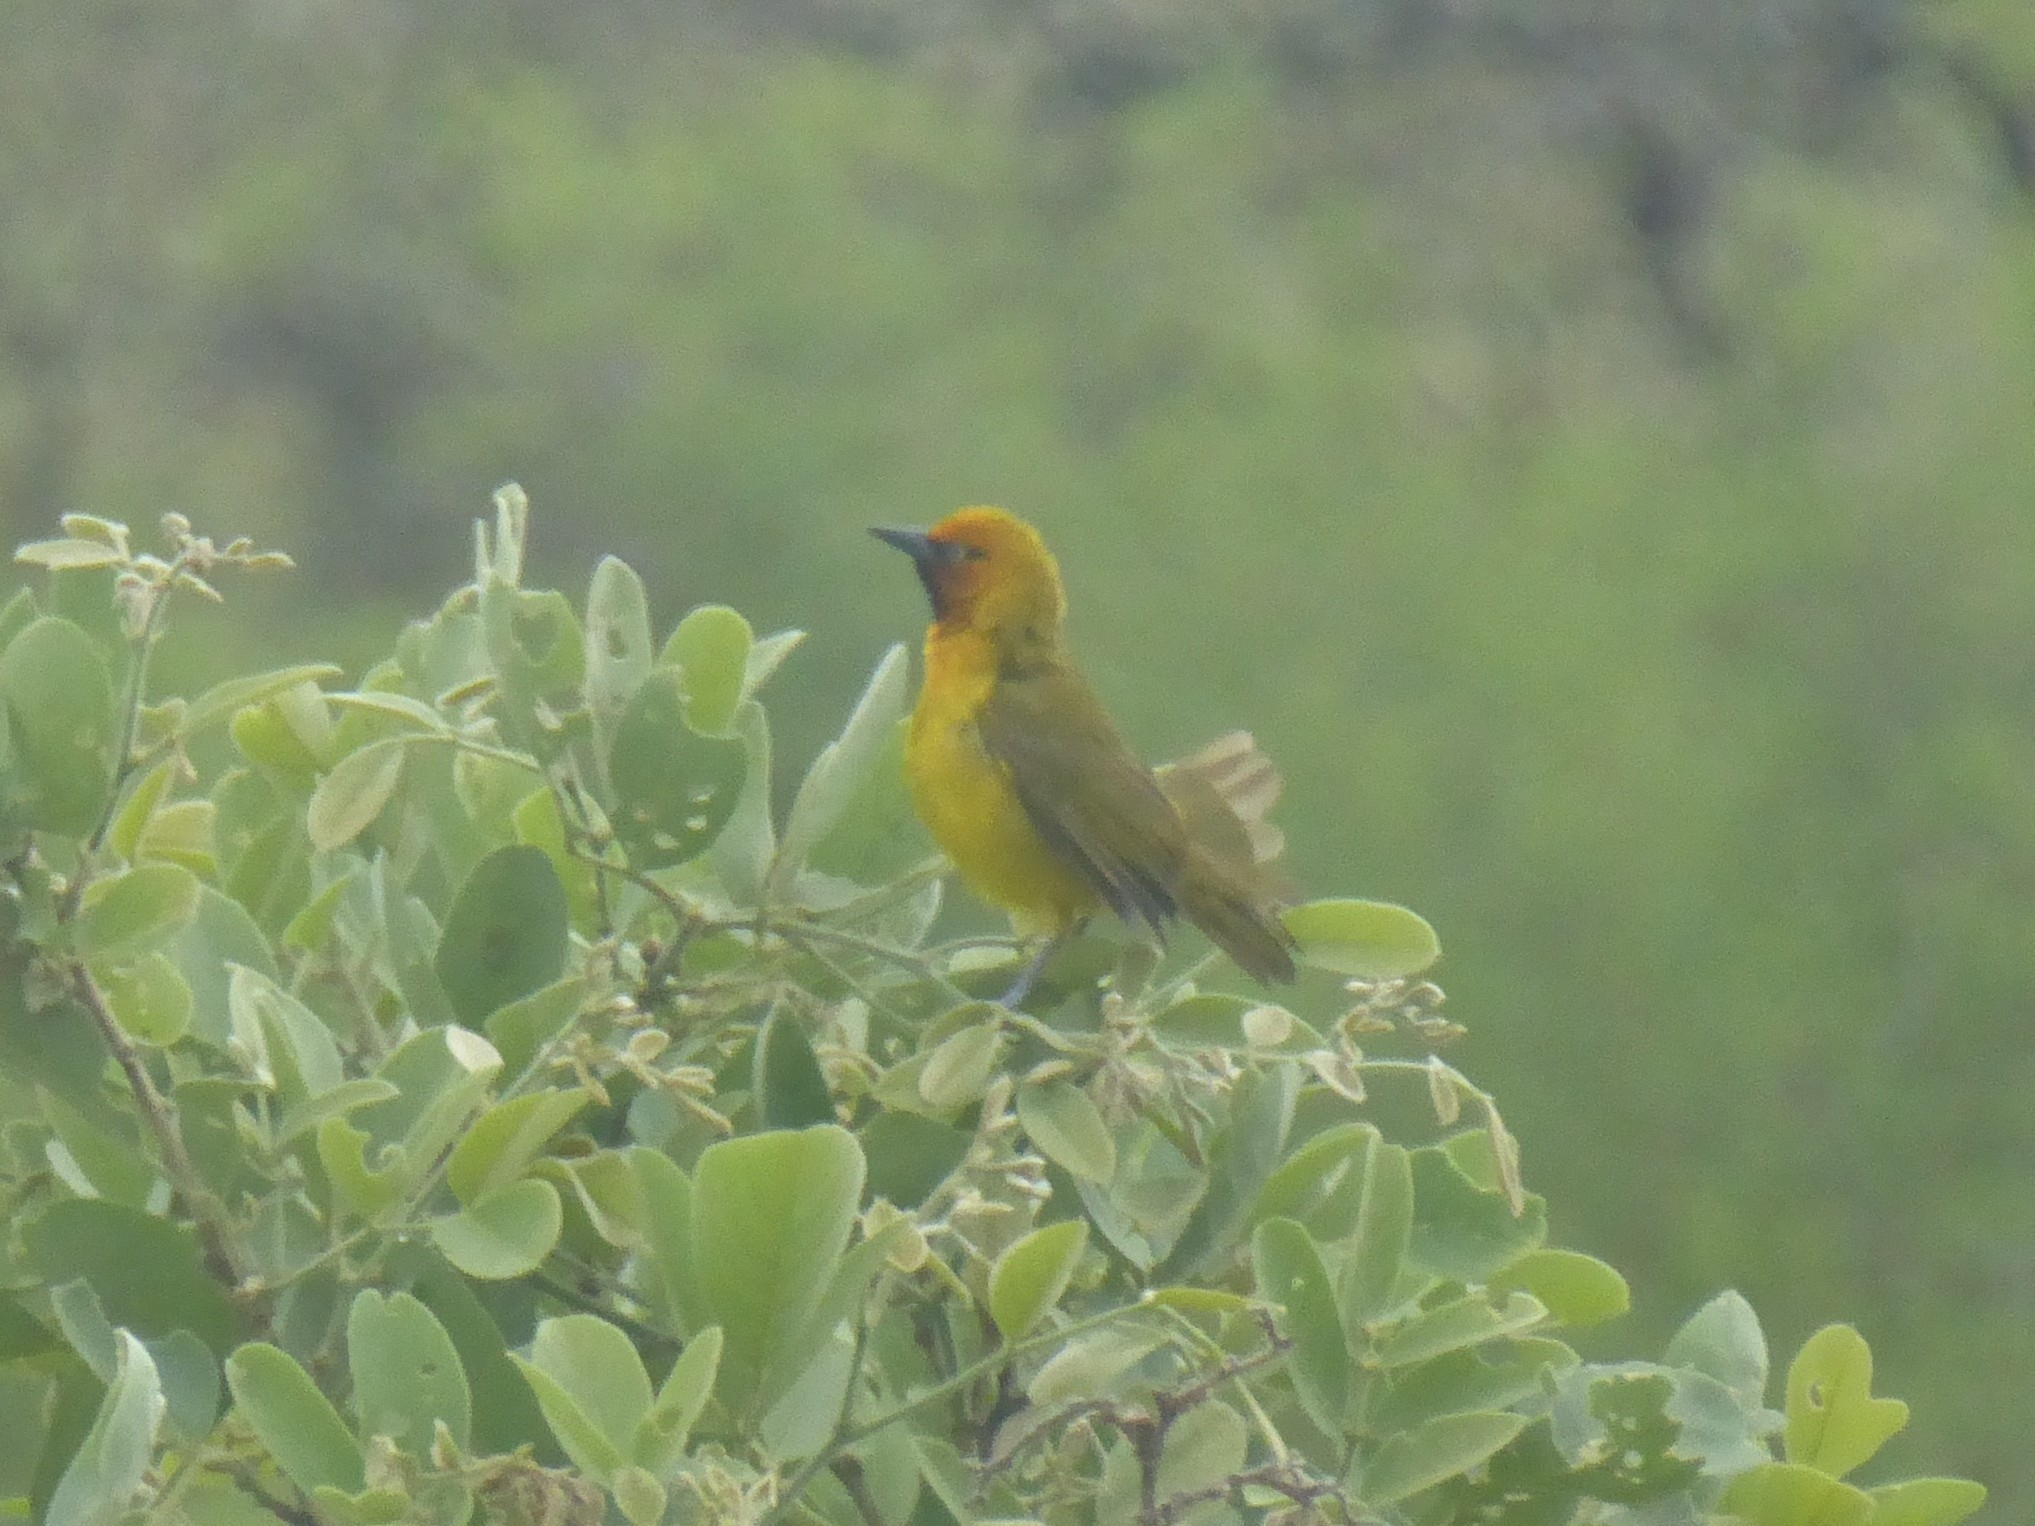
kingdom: Animalia
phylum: Chordata
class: Aves
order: Passeriformes
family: Ploceidae
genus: Ploceus
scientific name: Ploceus ocularis
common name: Spectacled weaver
